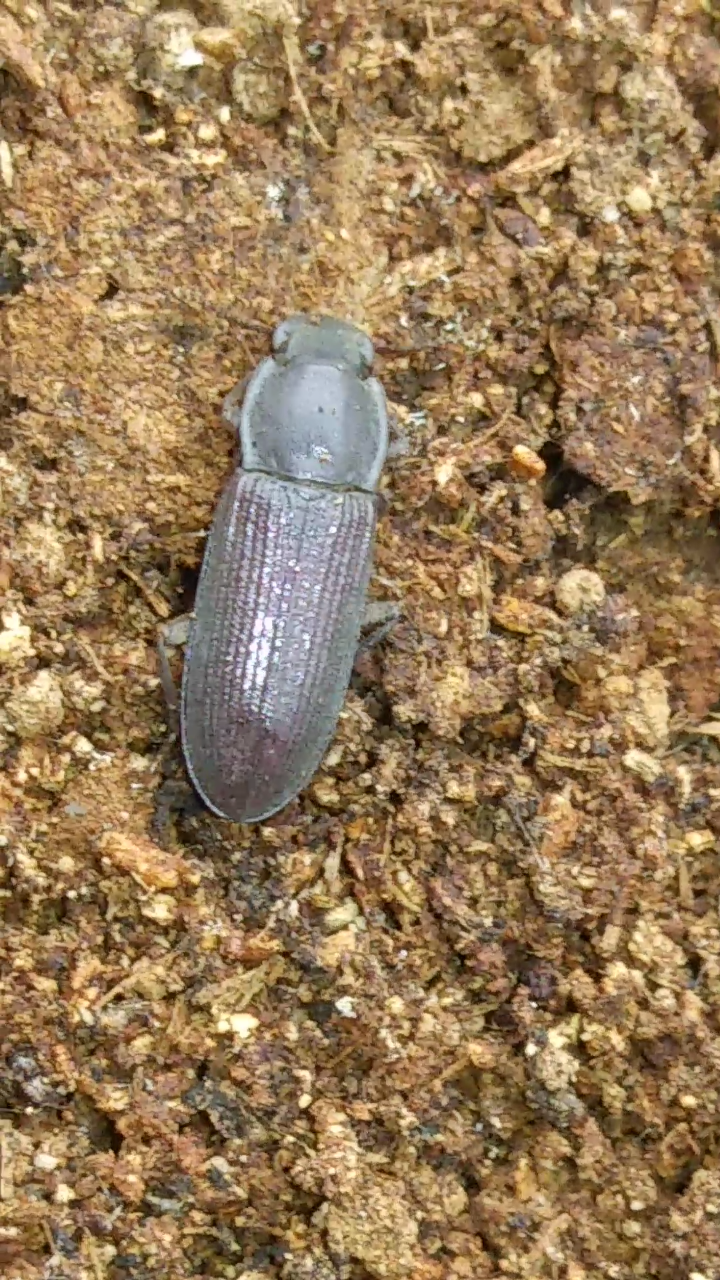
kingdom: Animalia
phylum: Arthropoda
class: Insecta
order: Coleoptera
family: Tenebrionidae
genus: Idiobates
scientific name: Idiobates castaneus
